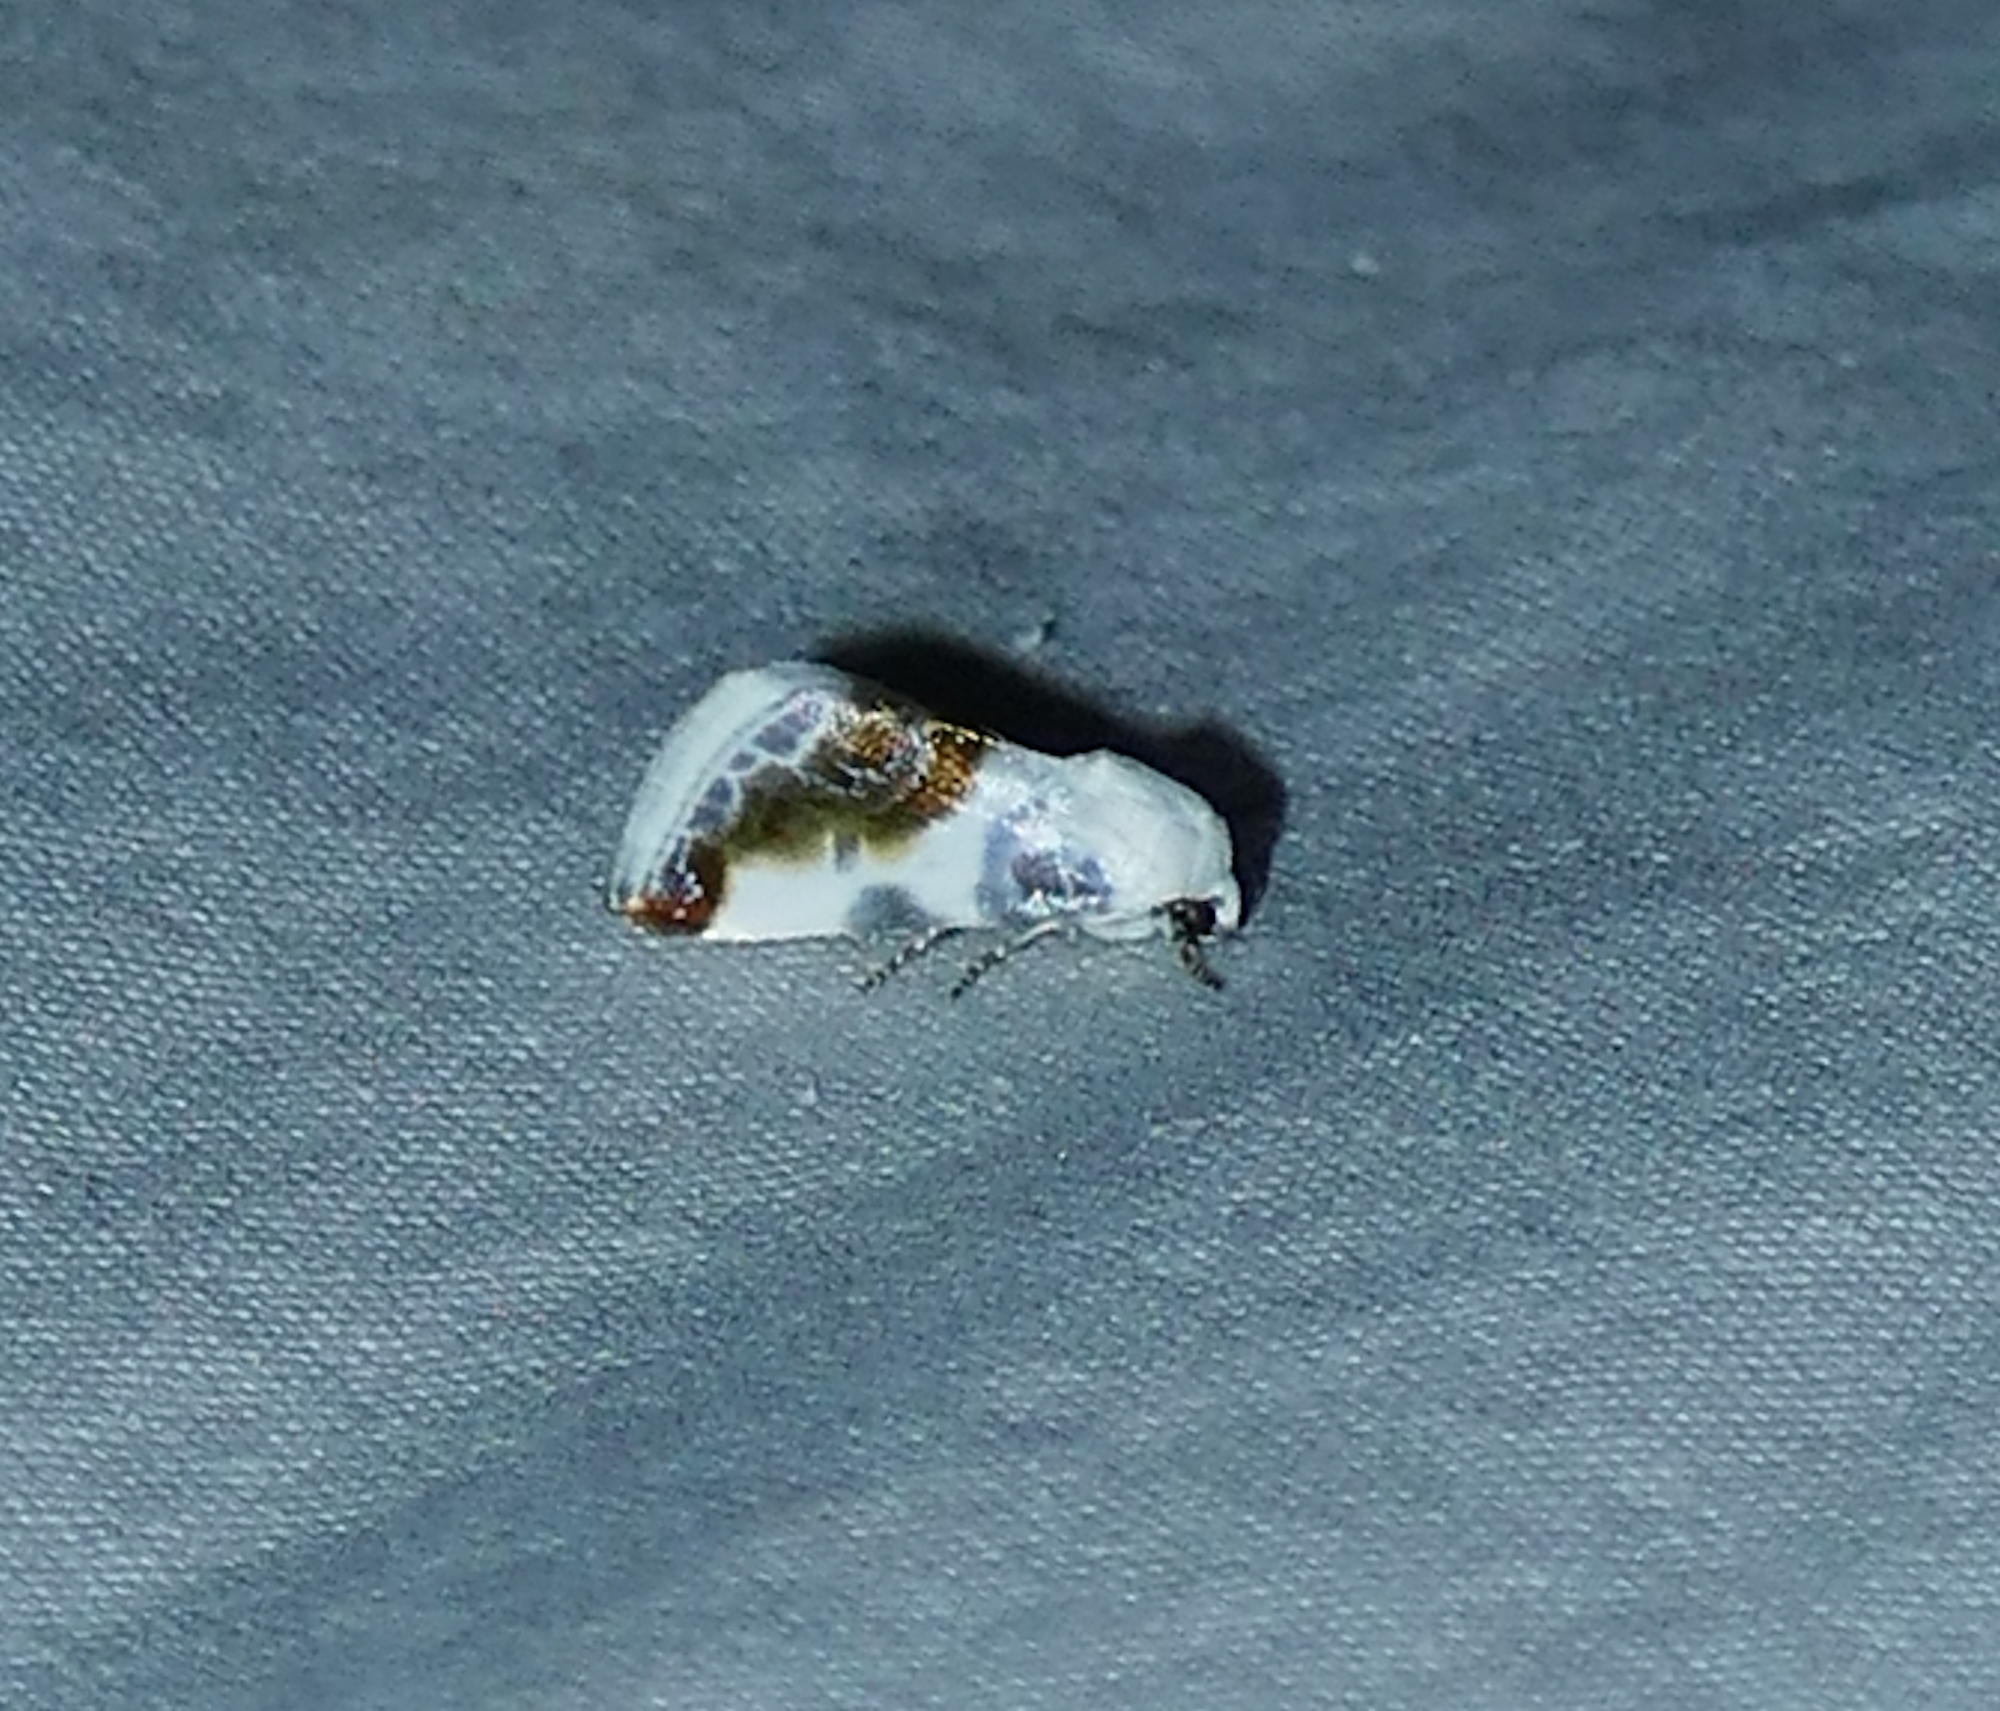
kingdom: Animalia
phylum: Arthropoda
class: Insecta
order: Lepidoptera
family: Noctuidae
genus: Acontia
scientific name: Acontia cretata
